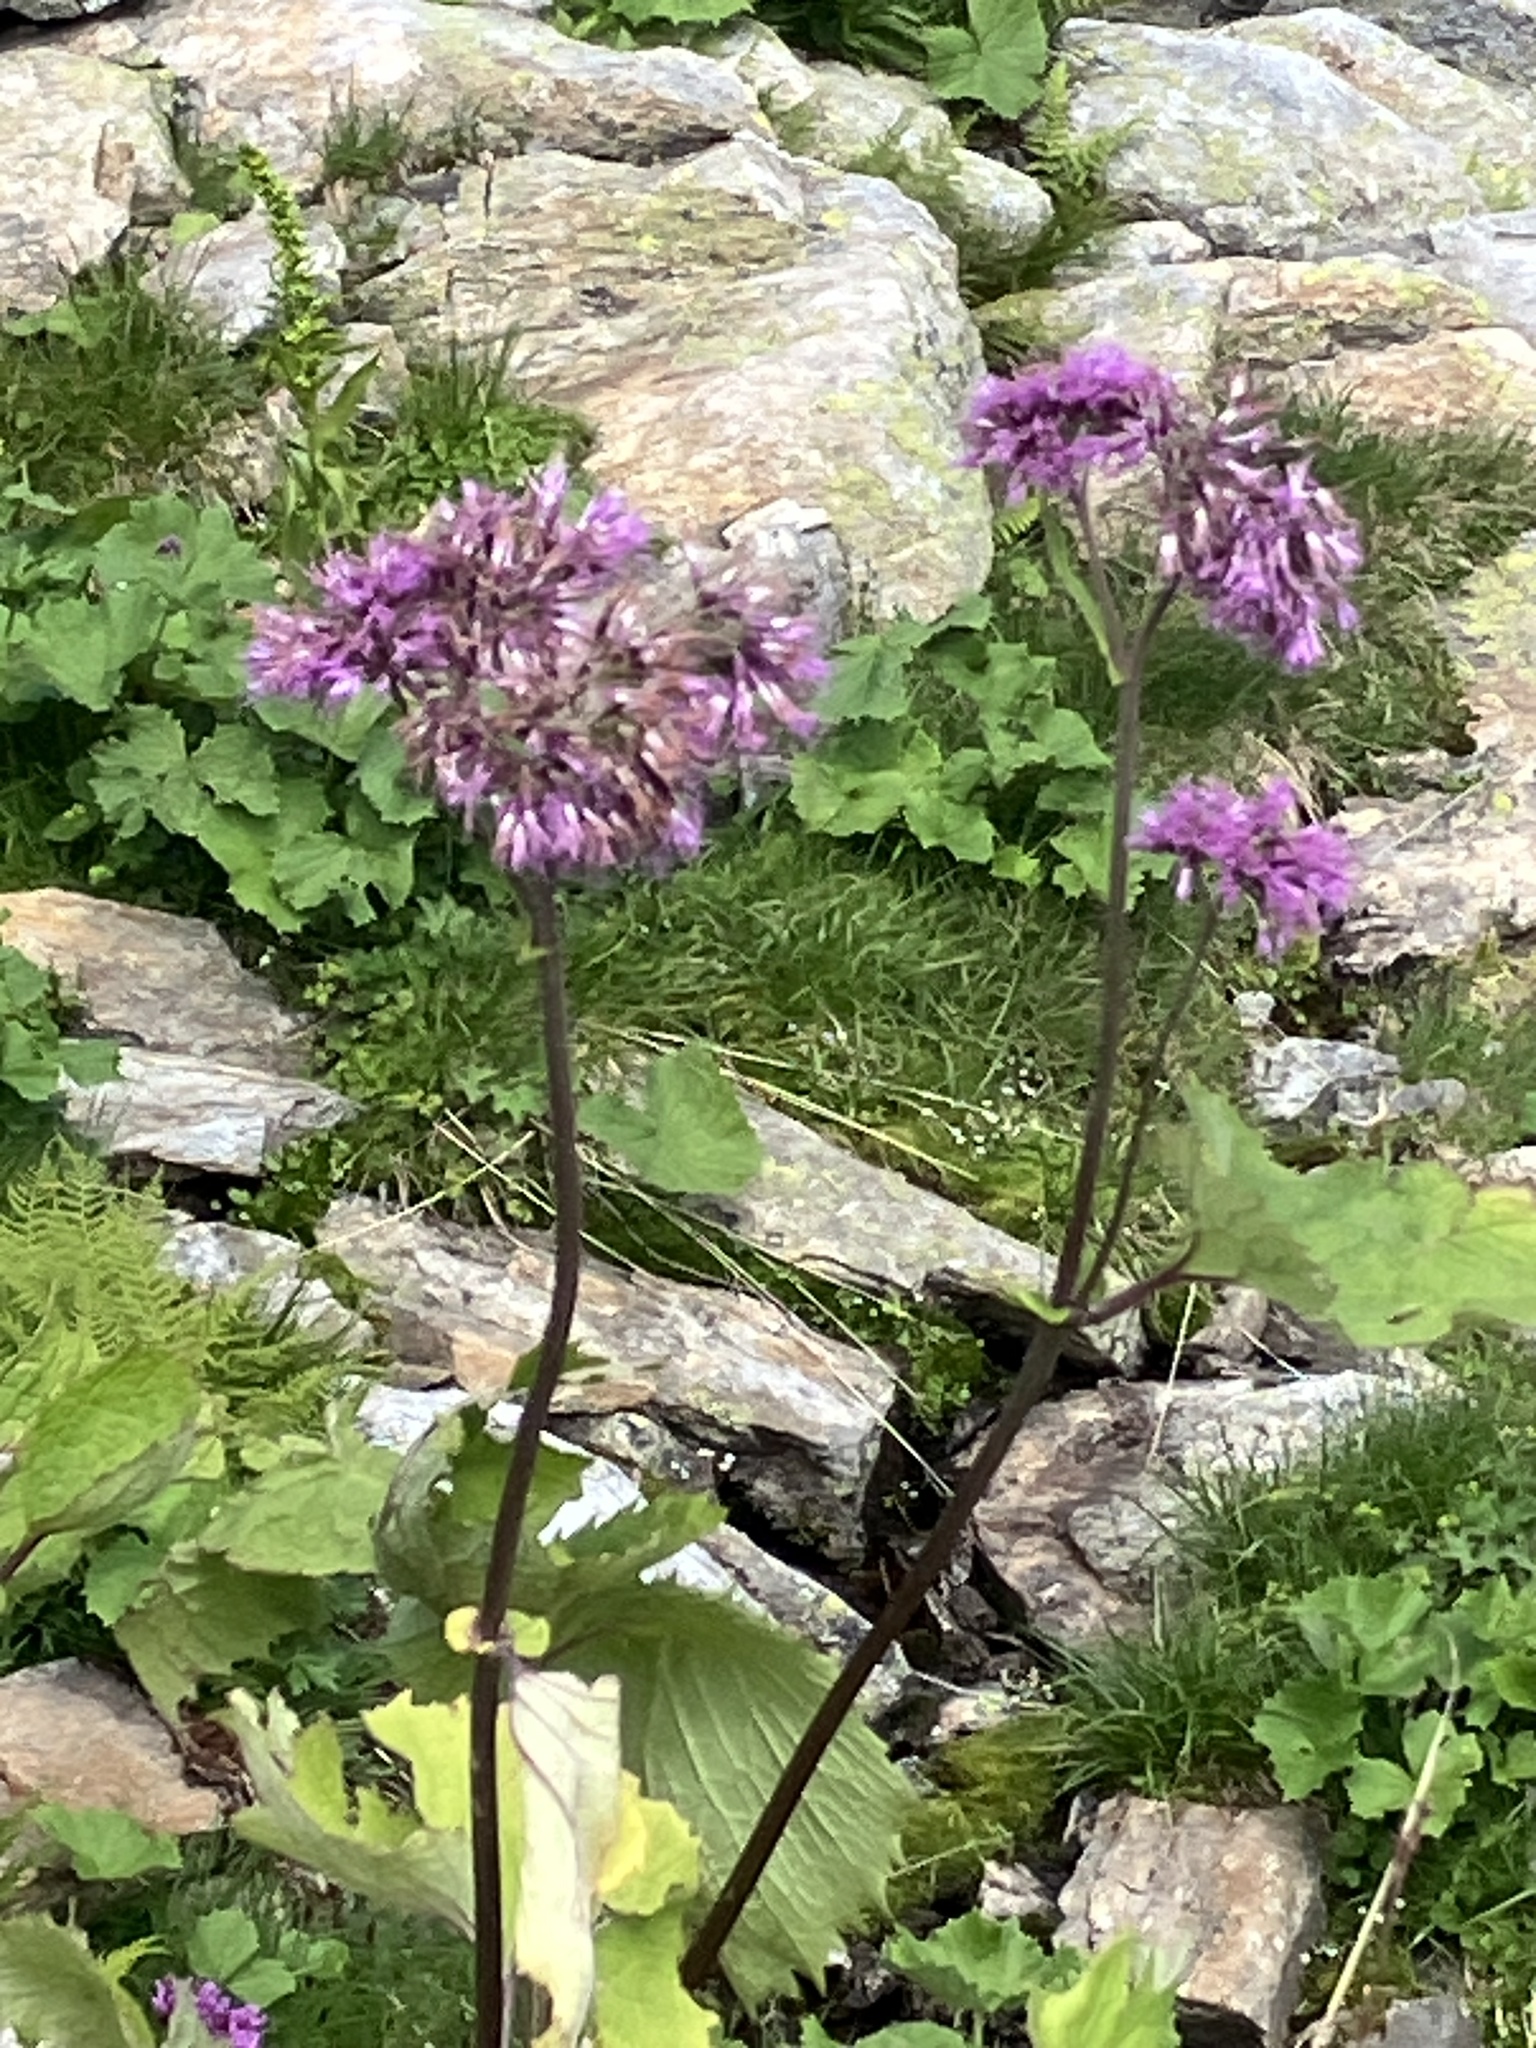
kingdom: Plantae
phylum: Tracheophyta
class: Magnoliopsida
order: Asterales
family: Asteraceae
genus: Adenostyles
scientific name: Adenostyles alliariae
